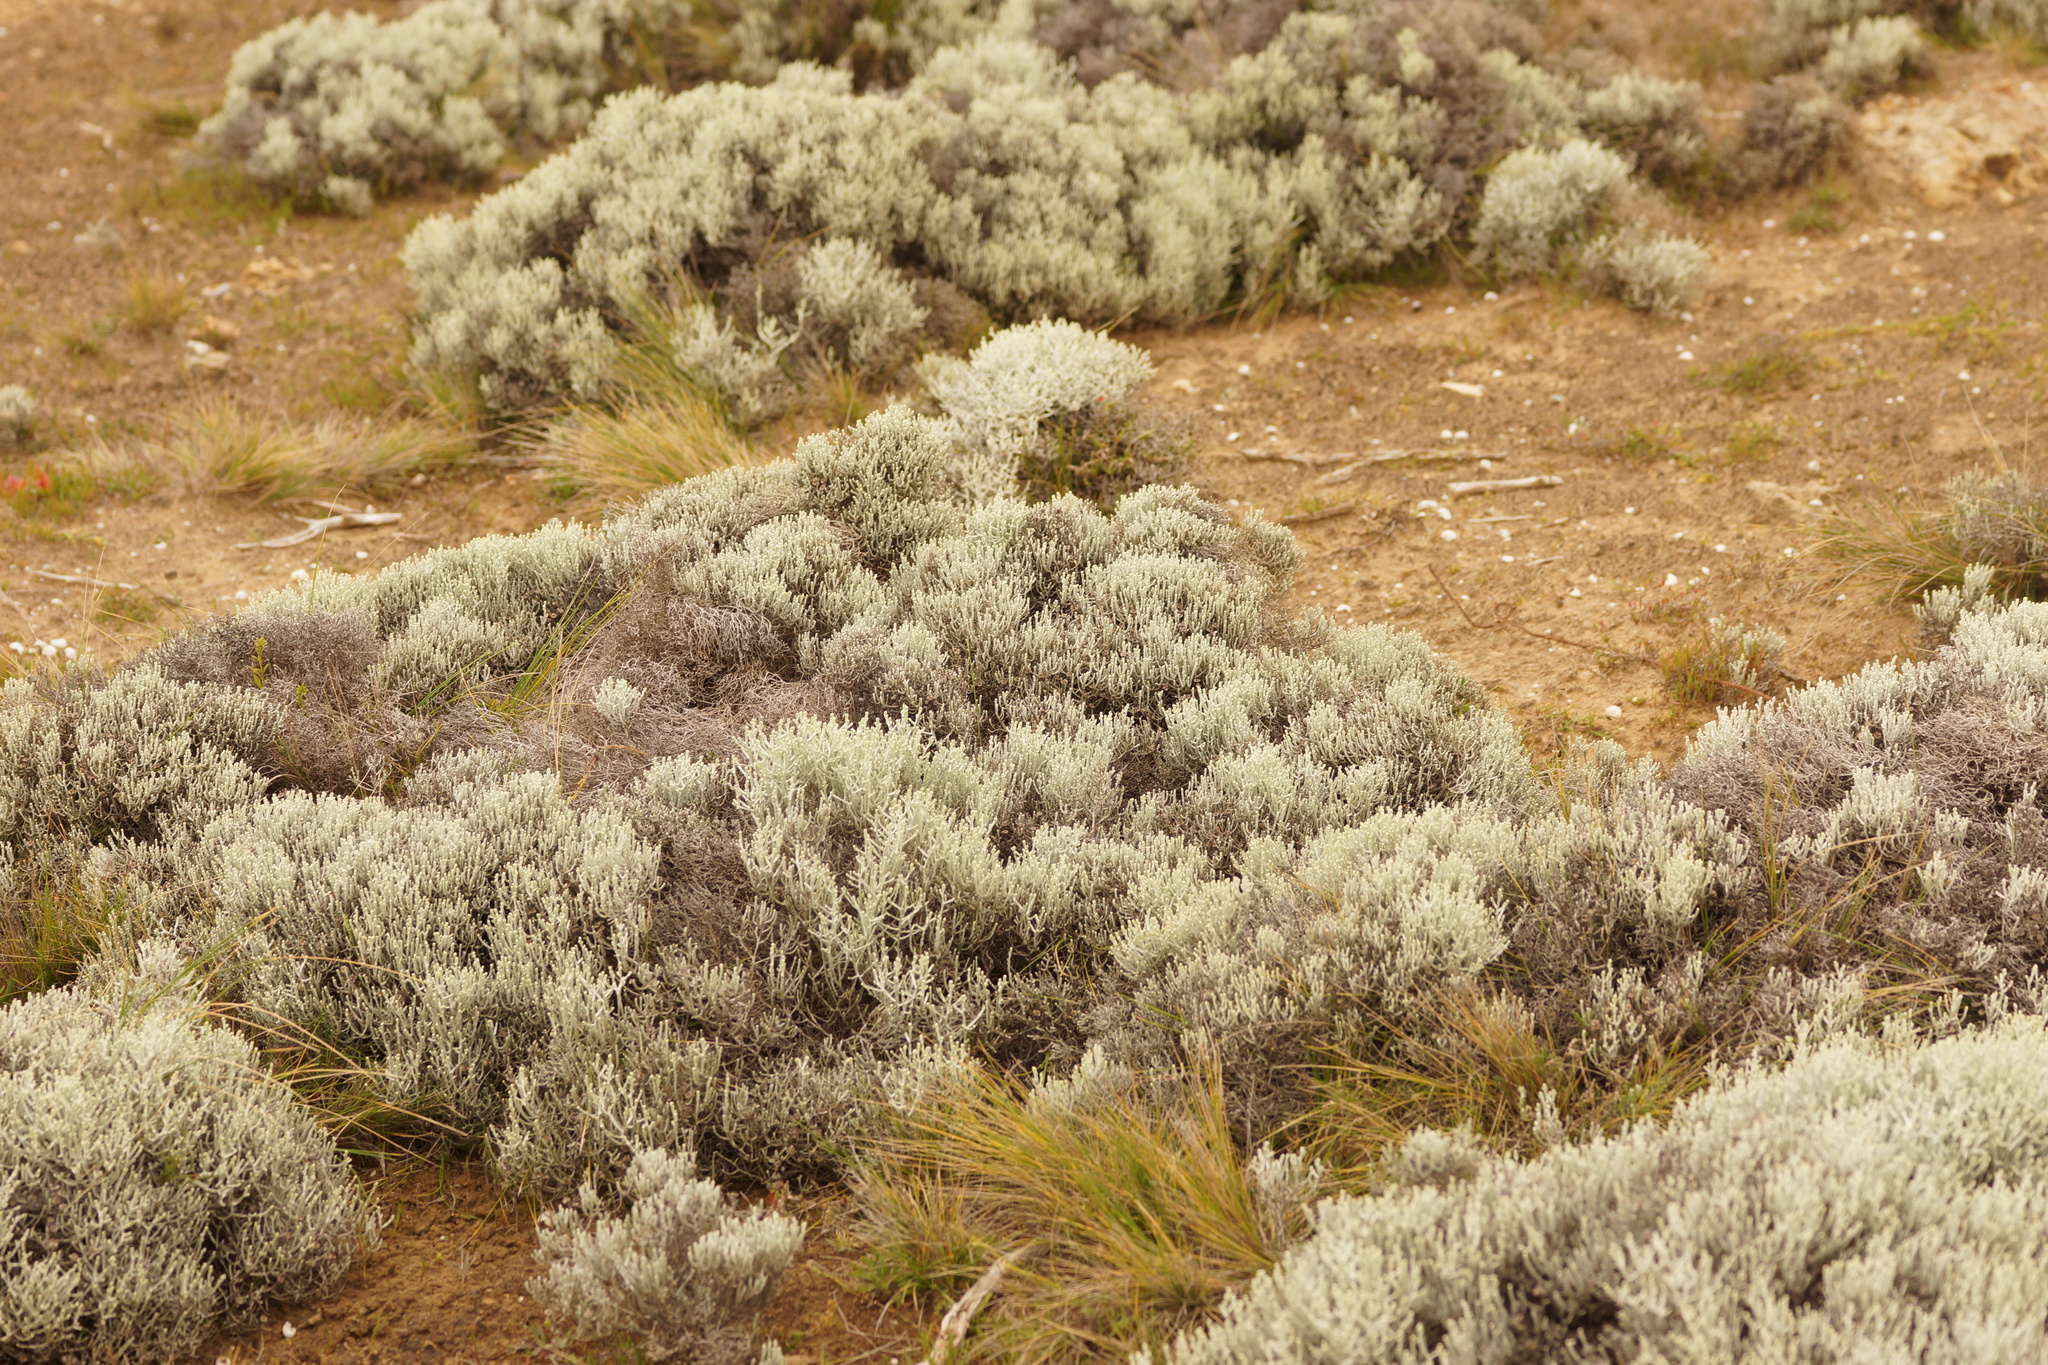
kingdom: Plantae
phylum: Tracheophyta
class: Magnoliopsida
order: Asterales
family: Asteraceae
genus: Calocephalus
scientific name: Calocephalus brownii
